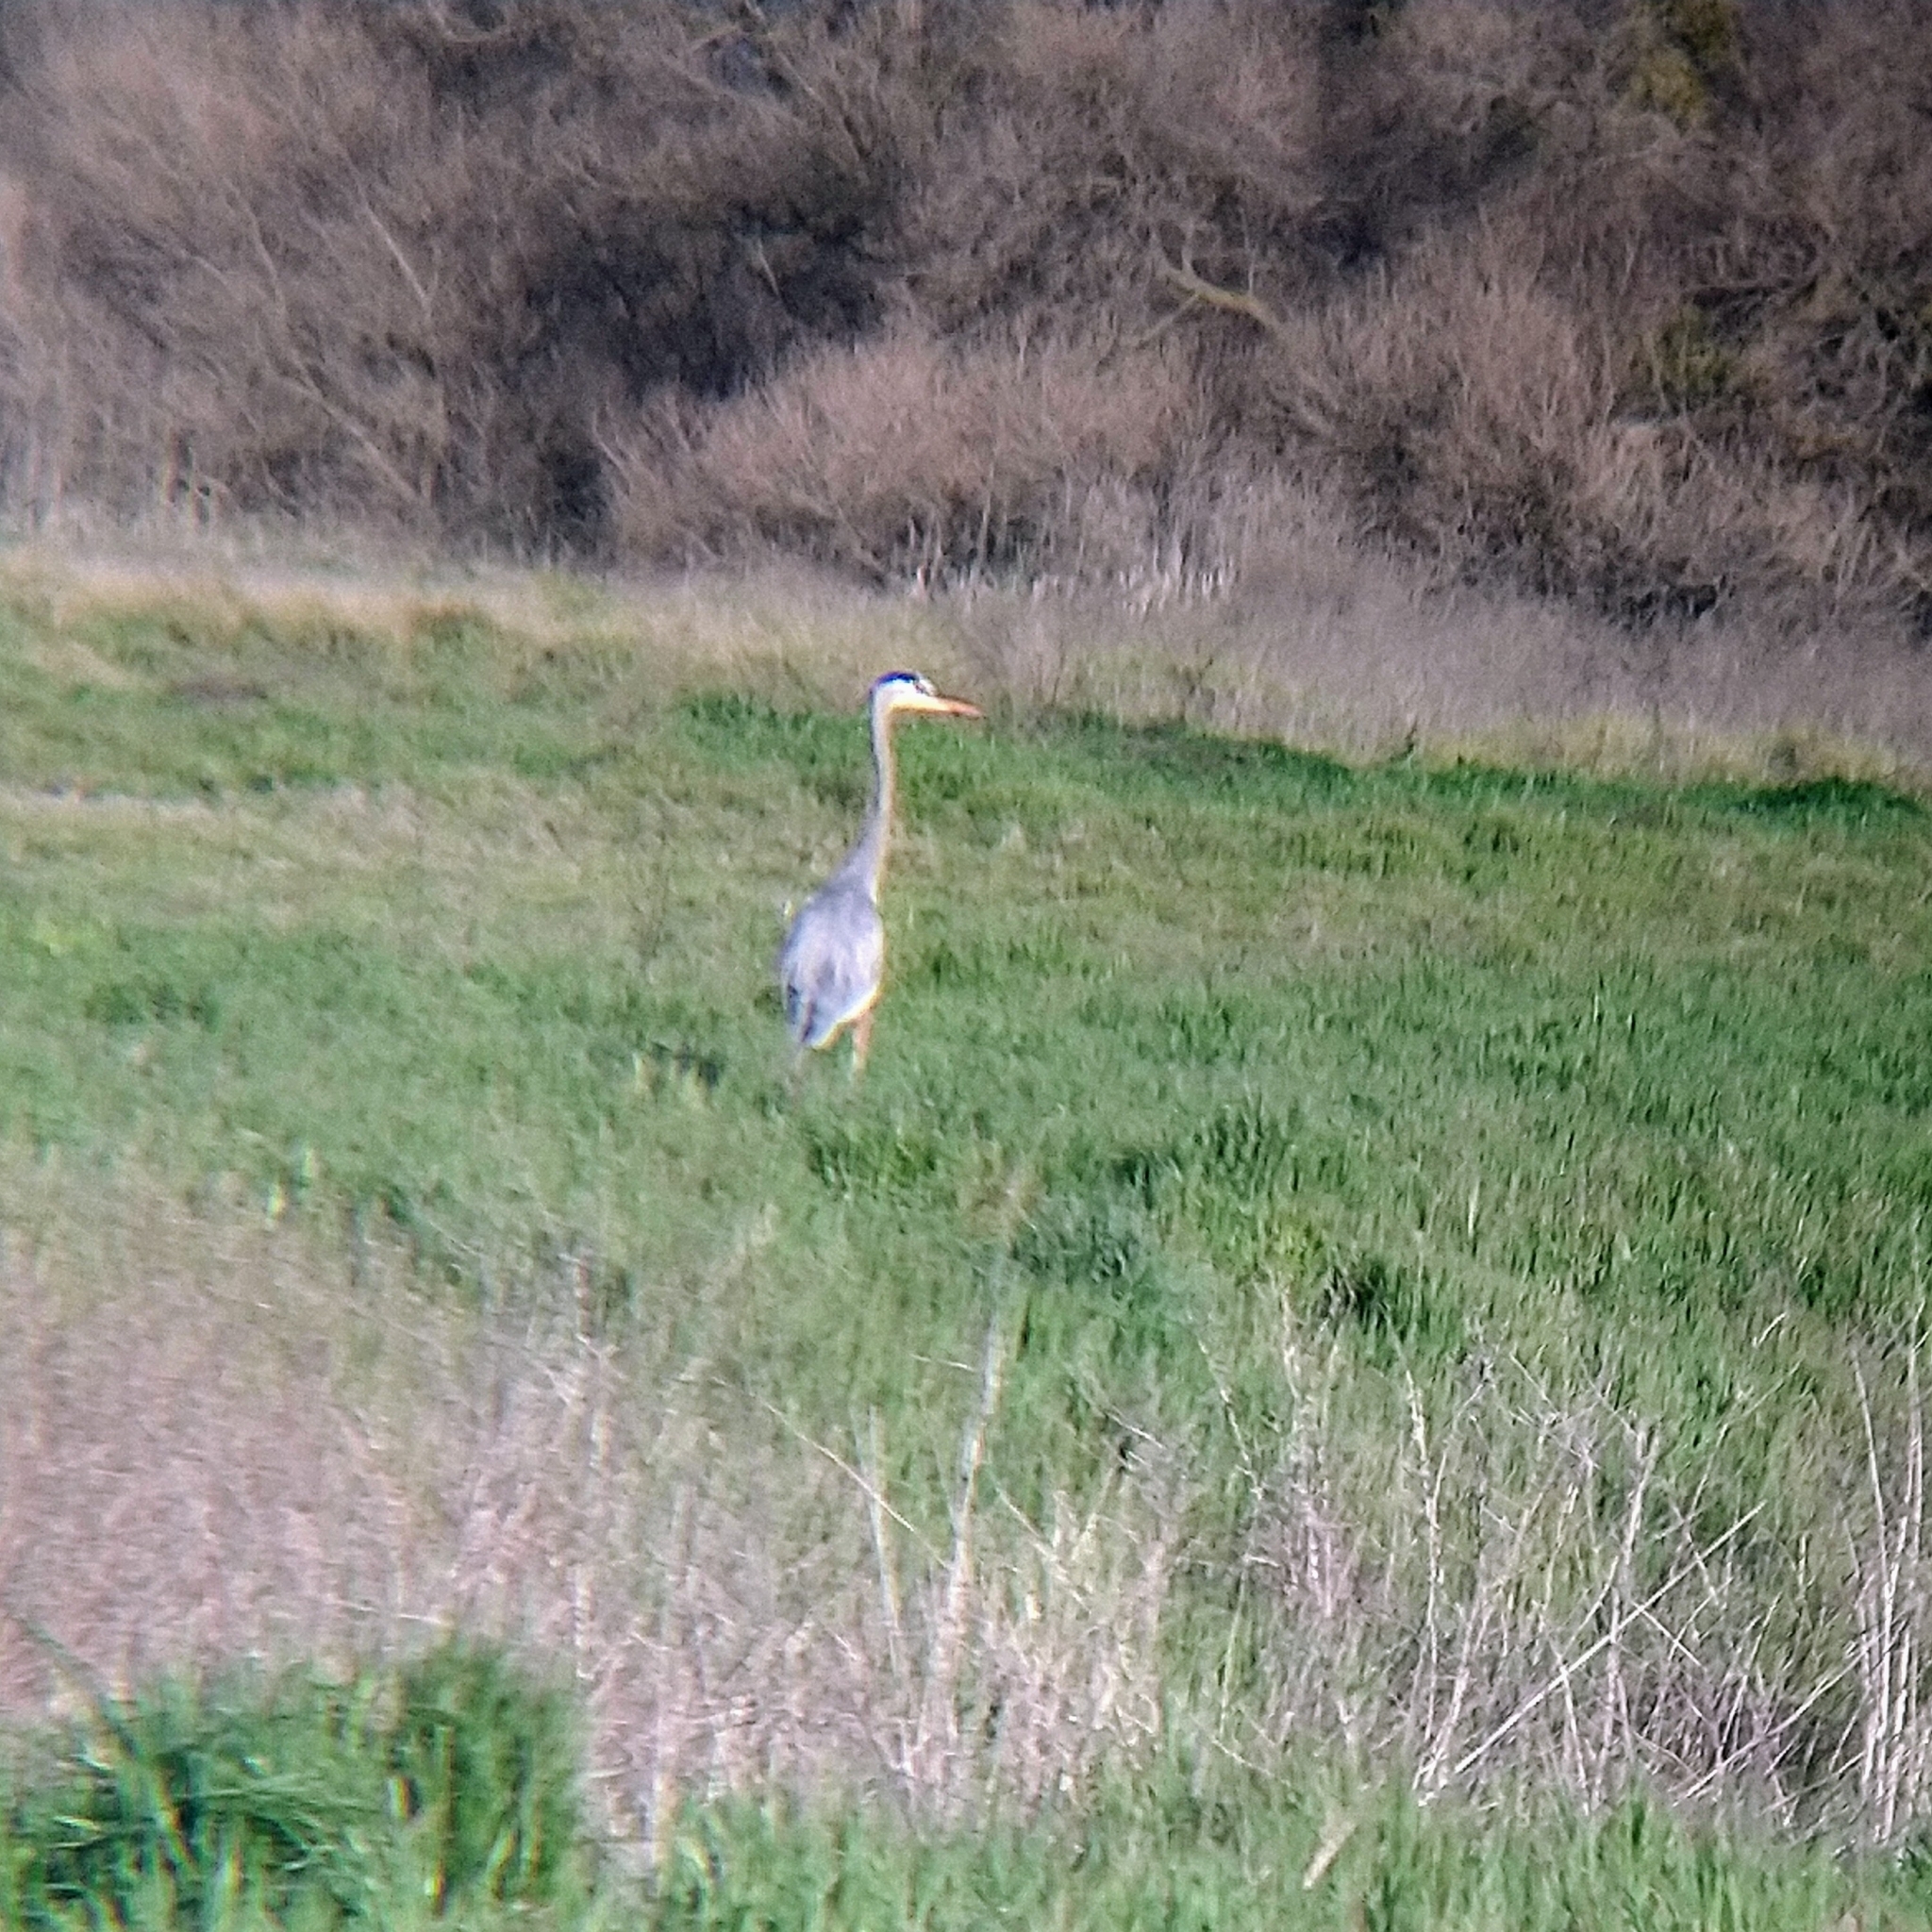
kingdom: Animalia
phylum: Chordata
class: Aves
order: Pelecaniformes
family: Ardeidae
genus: Ardea
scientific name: Ardea herodias
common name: Great blue heron
